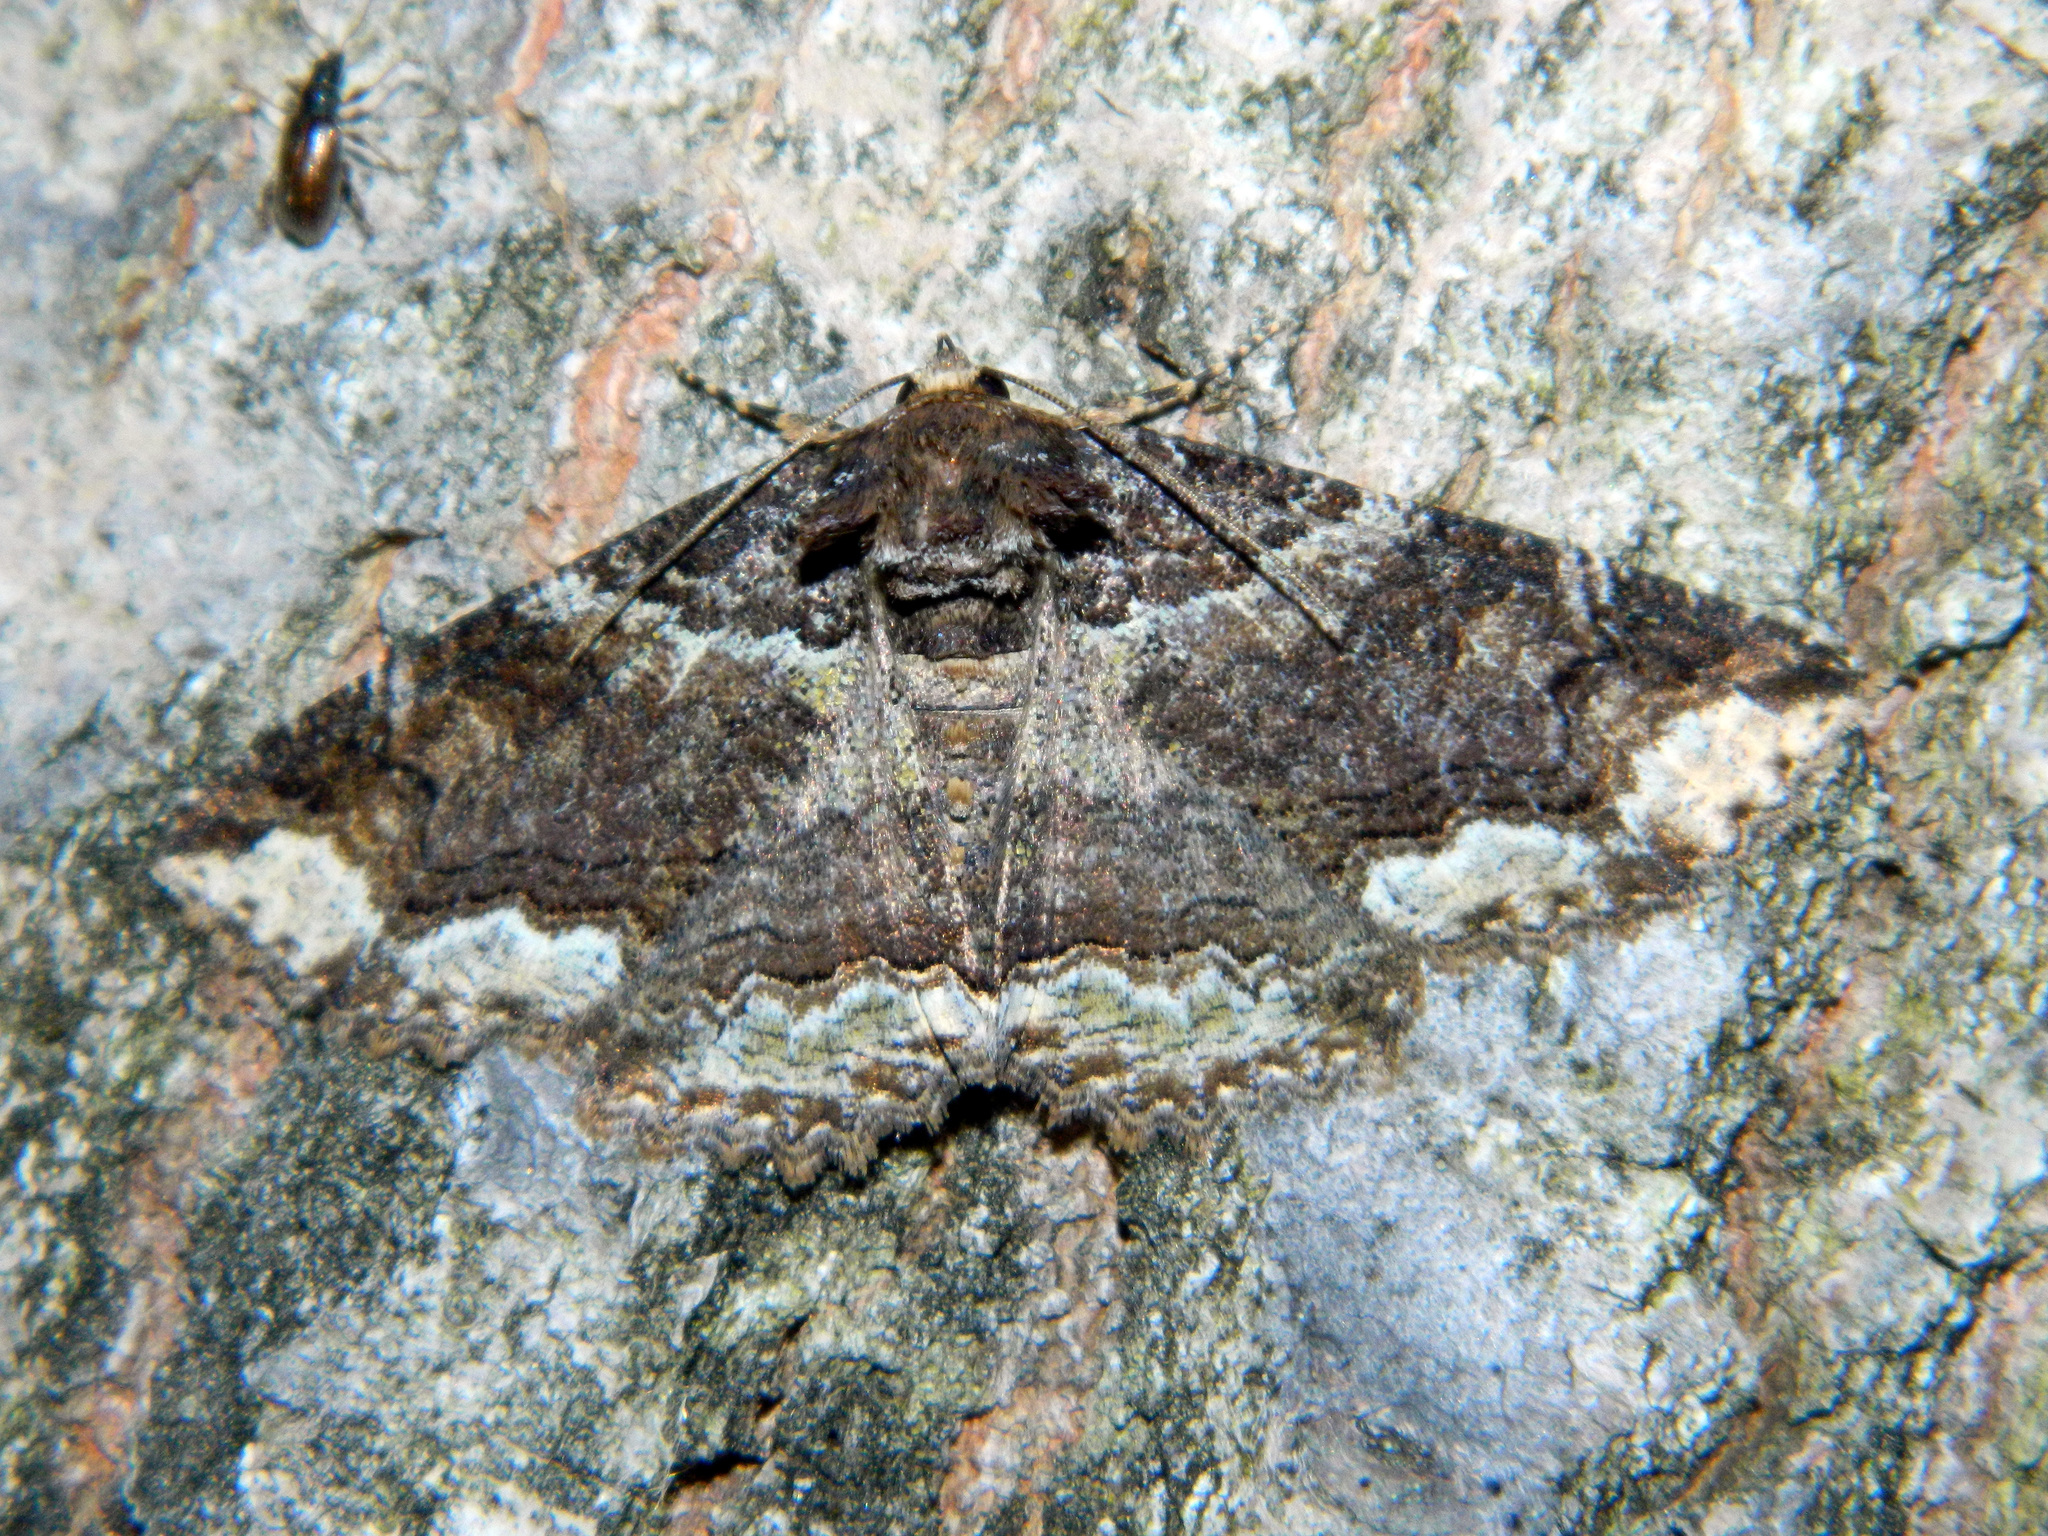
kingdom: Animalia
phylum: Arthropoda
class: Insecta
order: Lepidoptera
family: Erebidae
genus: Zale
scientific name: Zale minerea
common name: Colorful zale moth
